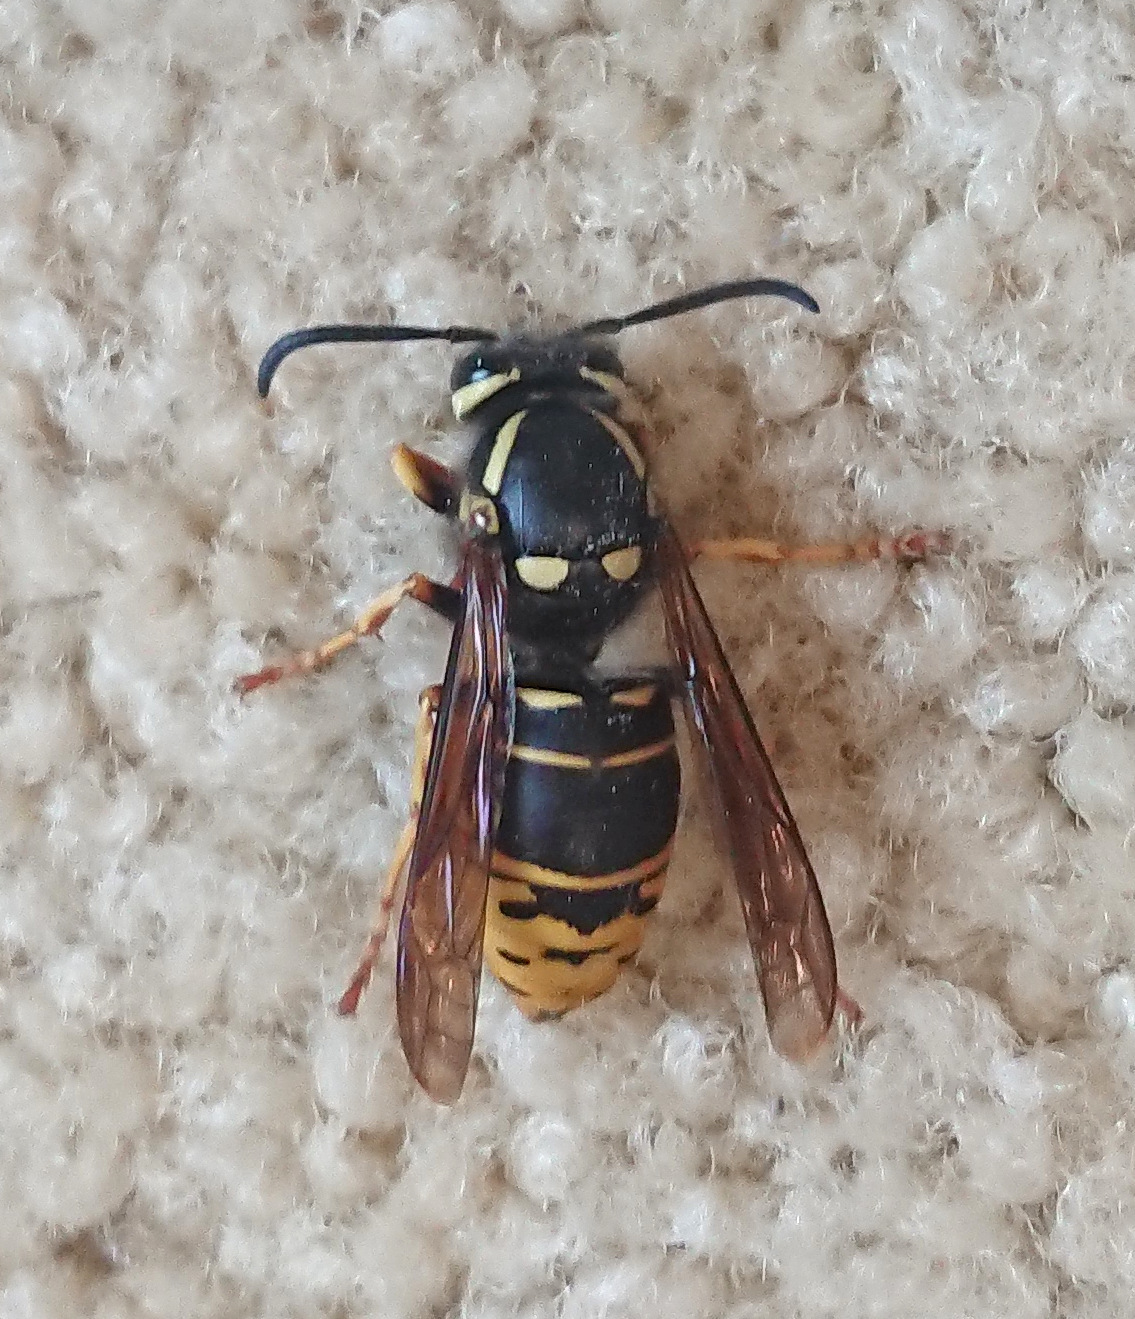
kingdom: Animalia
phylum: Arthropoda
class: Insecta
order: Hymenoptera
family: Vespidae
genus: Vespula
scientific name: Vespula vidua
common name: Widow yellowjacket
